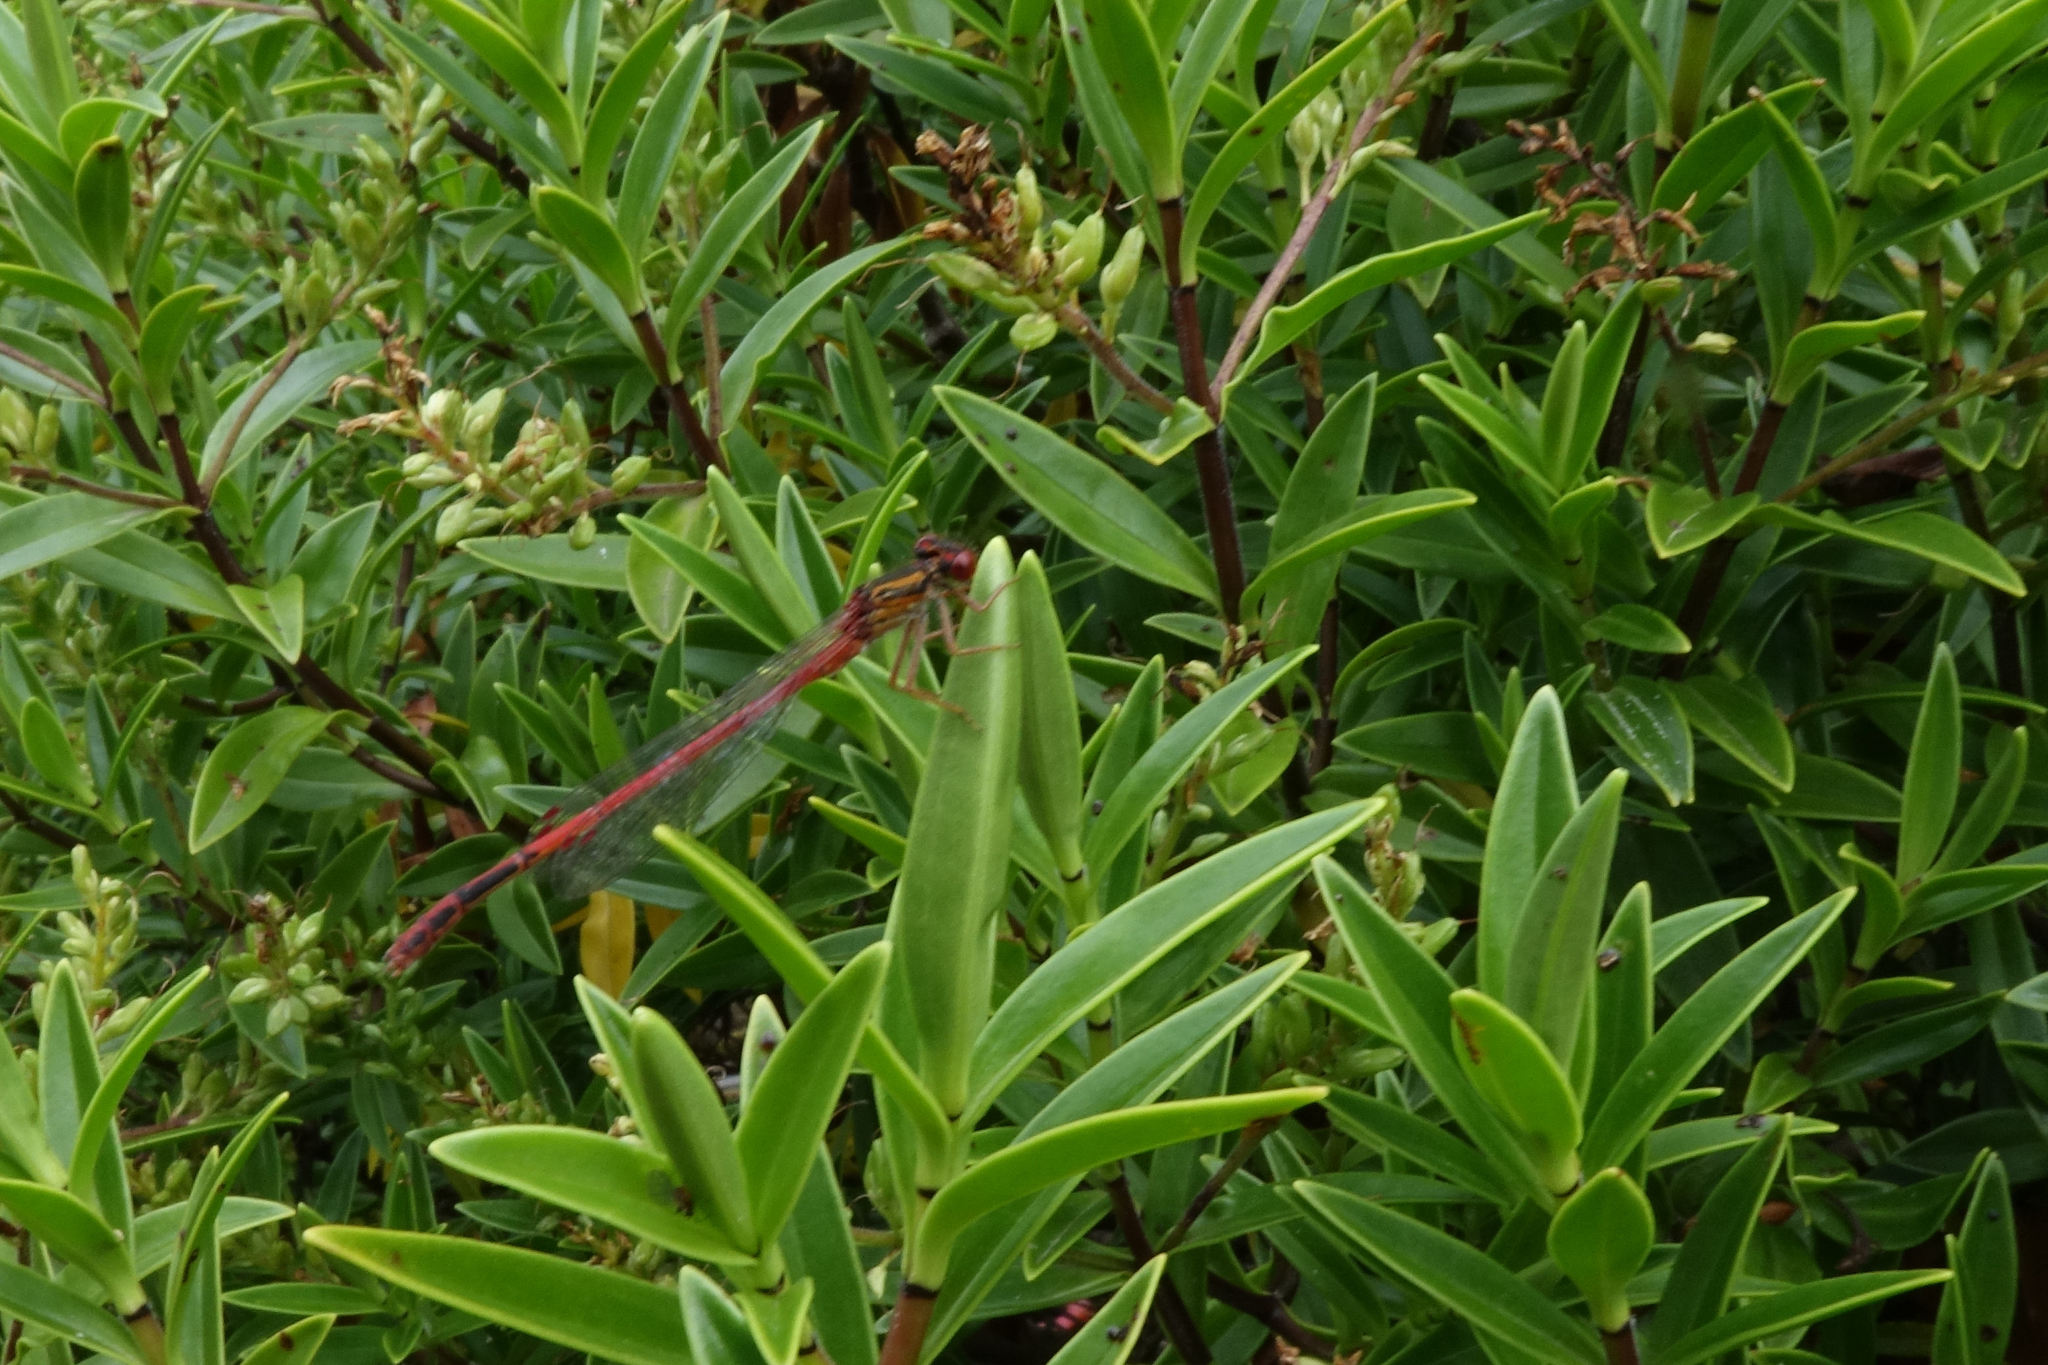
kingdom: Animalia
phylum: Arthropoda
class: Insecta
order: Odonata
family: Coenagrionidae
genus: Xanthocnemis
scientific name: Xanthocnemis zealandica
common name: Common redcoat damselfly
